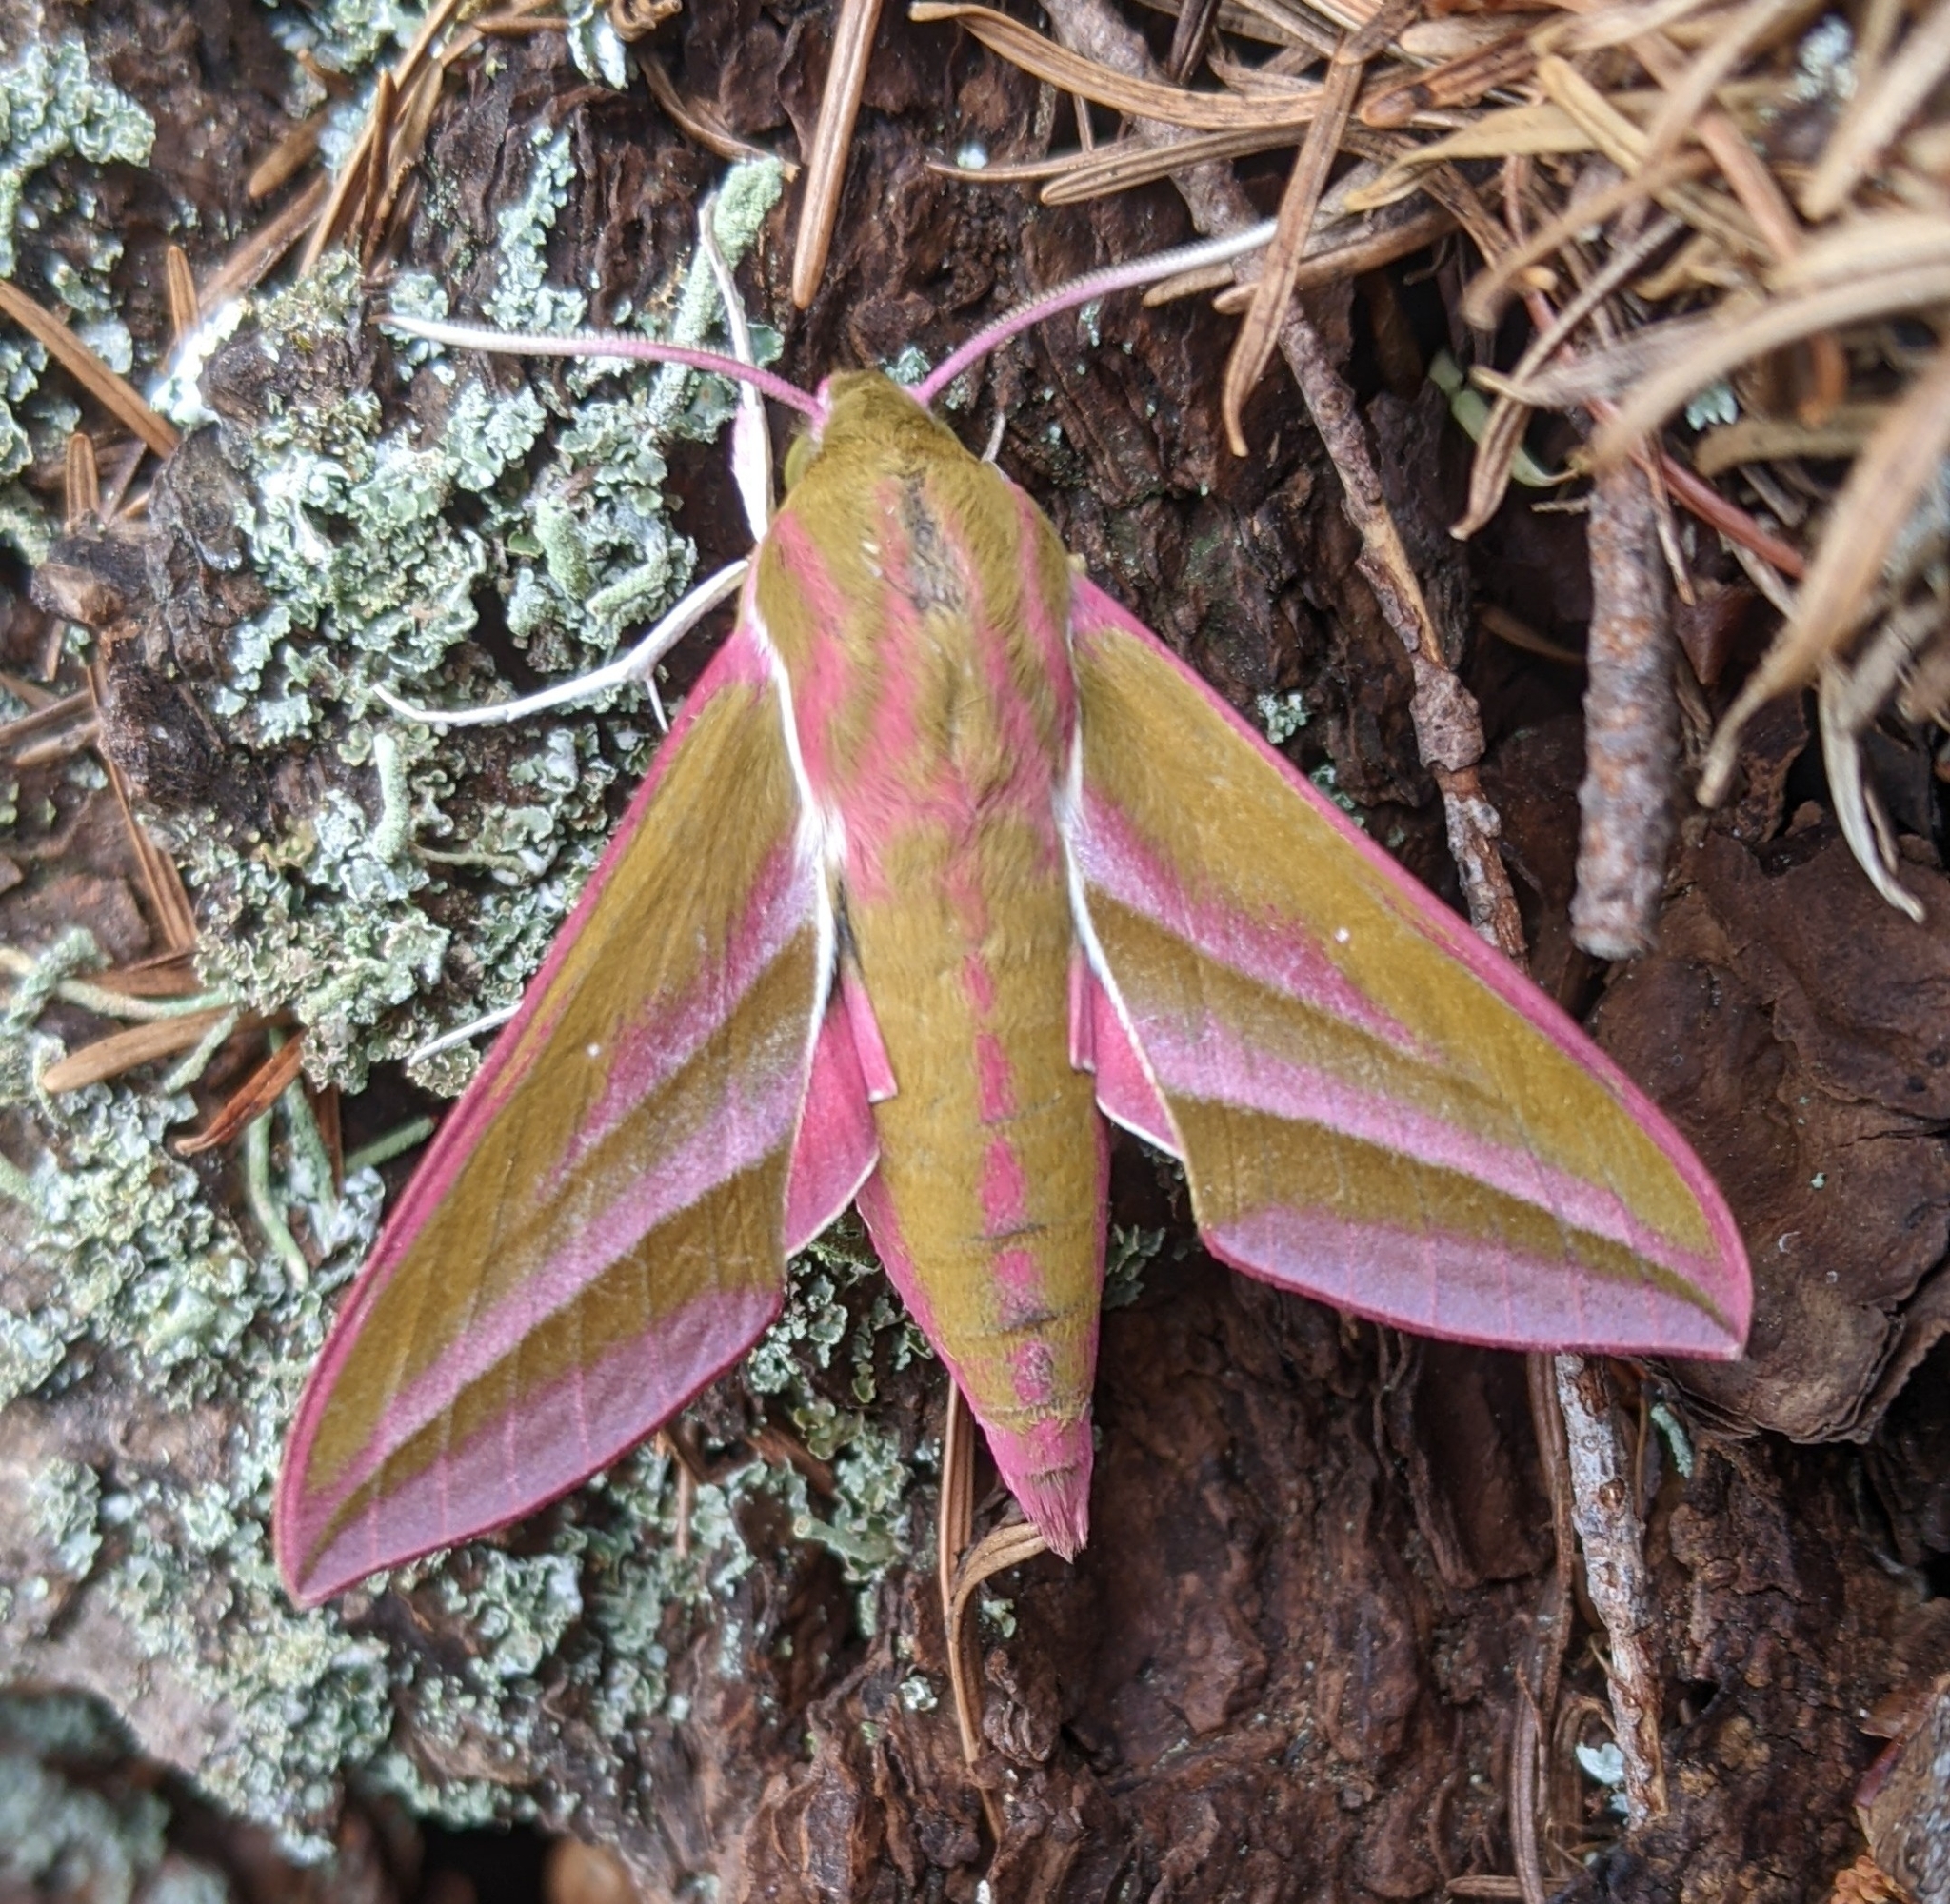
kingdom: Animalia
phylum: Arthropoda
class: Insecta
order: Lepidoptera
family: Sphingidae
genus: Deilephila
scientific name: Deilephila elpenor
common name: Elephant hawk-moth
